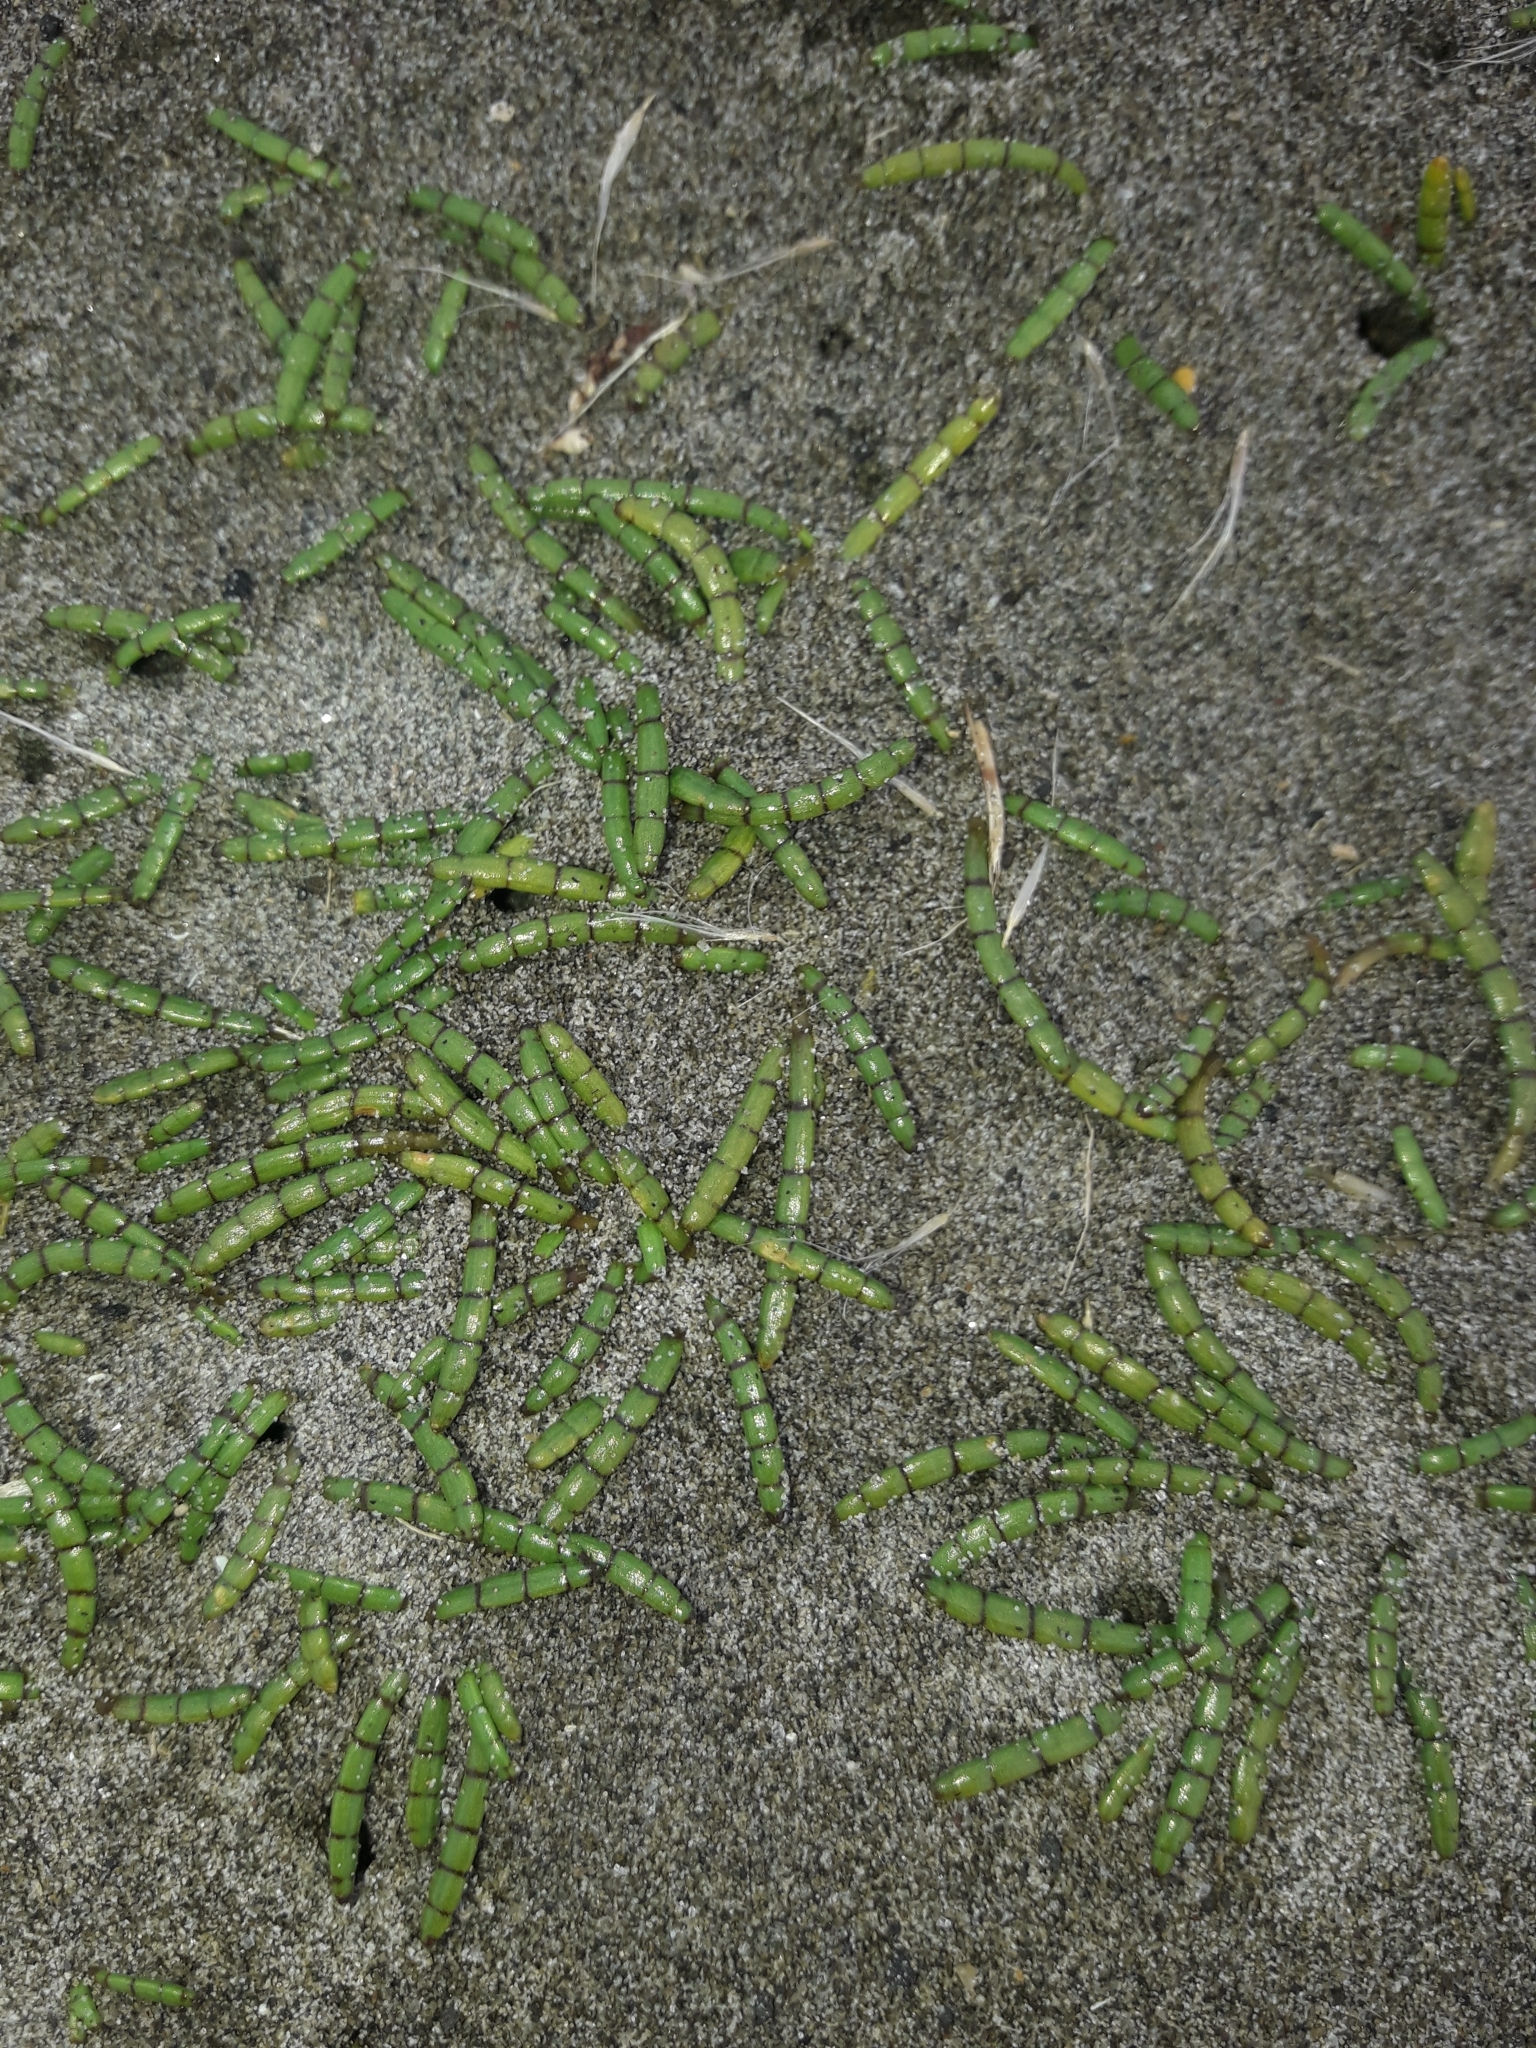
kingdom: Plantae
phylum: Tracheophyta
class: Magnoliopsida
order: Apiales
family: Apiaceae
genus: Lilaeopsis
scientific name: Lilaeopsis novae-zelandiae
